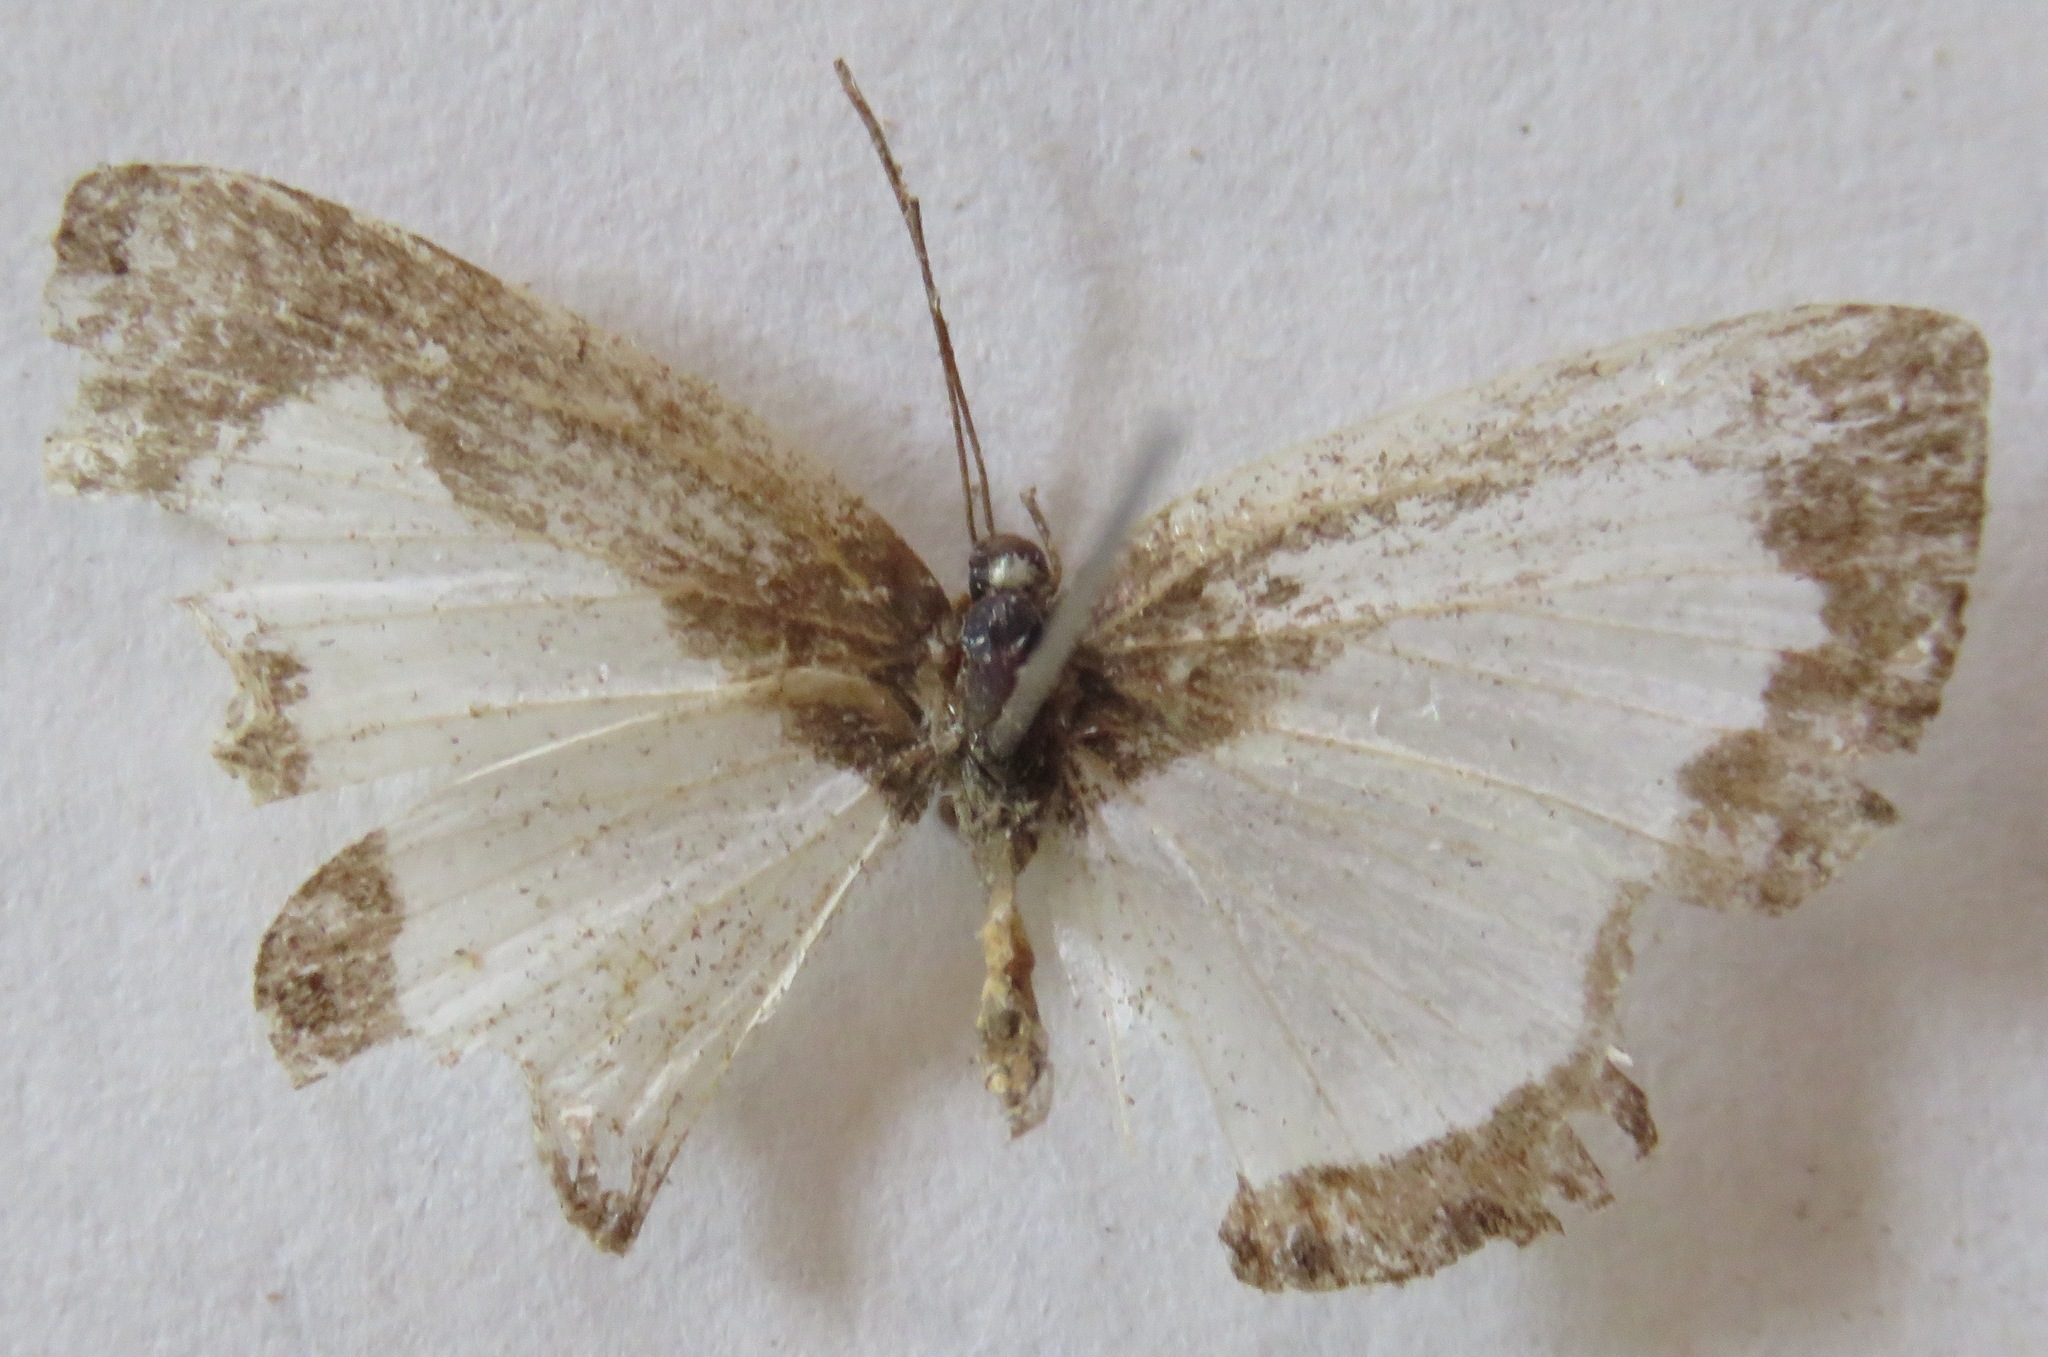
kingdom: Animalia
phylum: Arthropoda
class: Insecta
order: Lepidoptera
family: Riodinidae
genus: Juditha
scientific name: Juditha caucana
